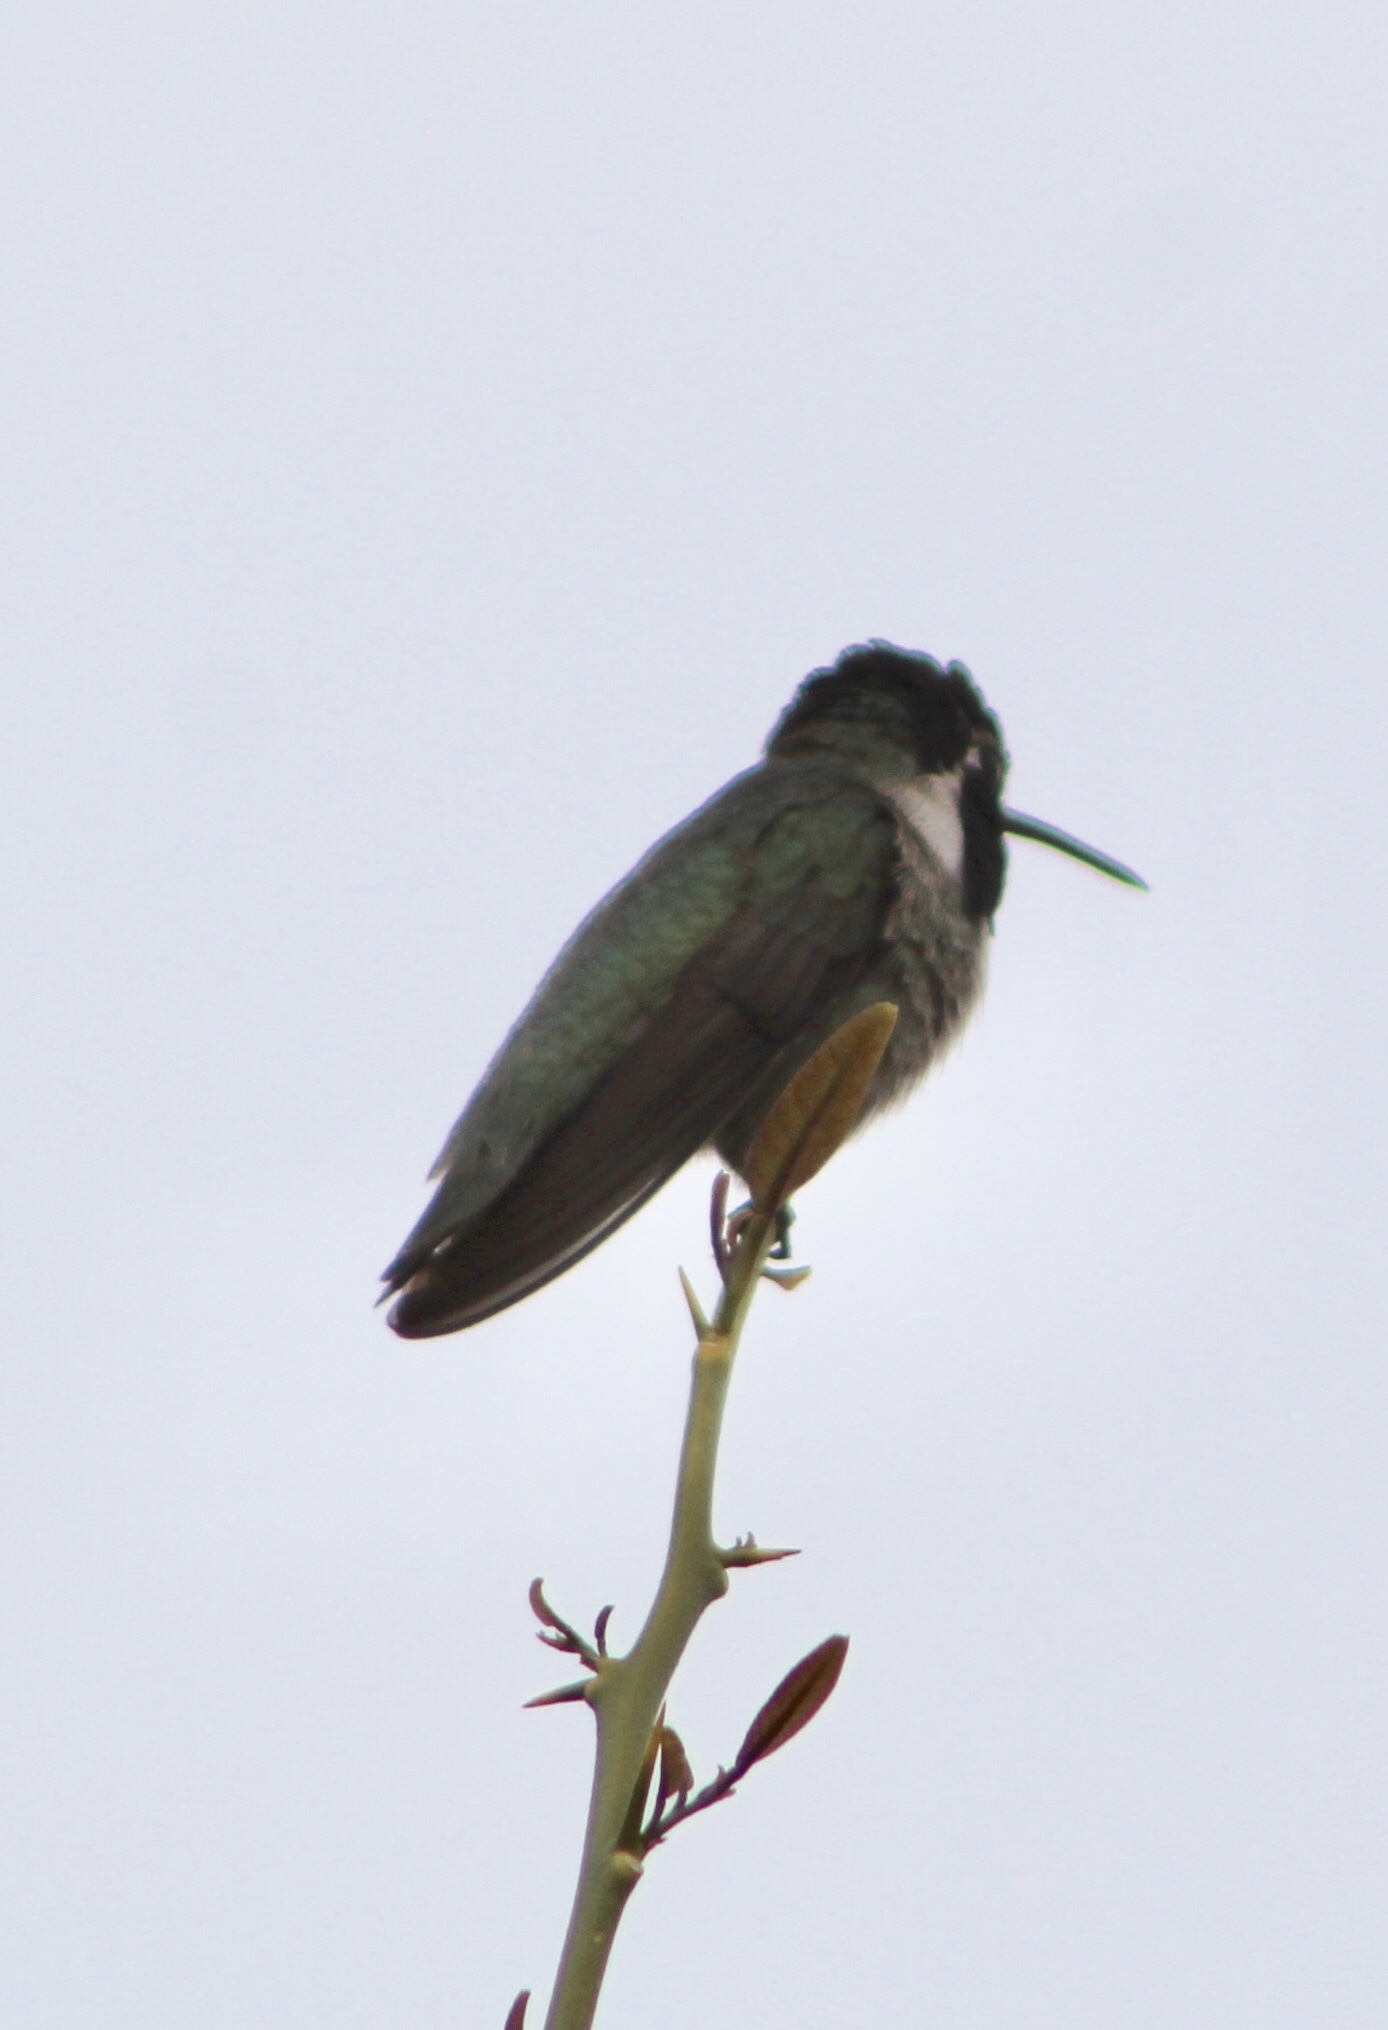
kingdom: Animalia
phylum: Chordata
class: Aves
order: Apodiformes
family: Trochilidae
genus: Calypte
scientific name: Calypte costae
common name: Costa's hummingbird
